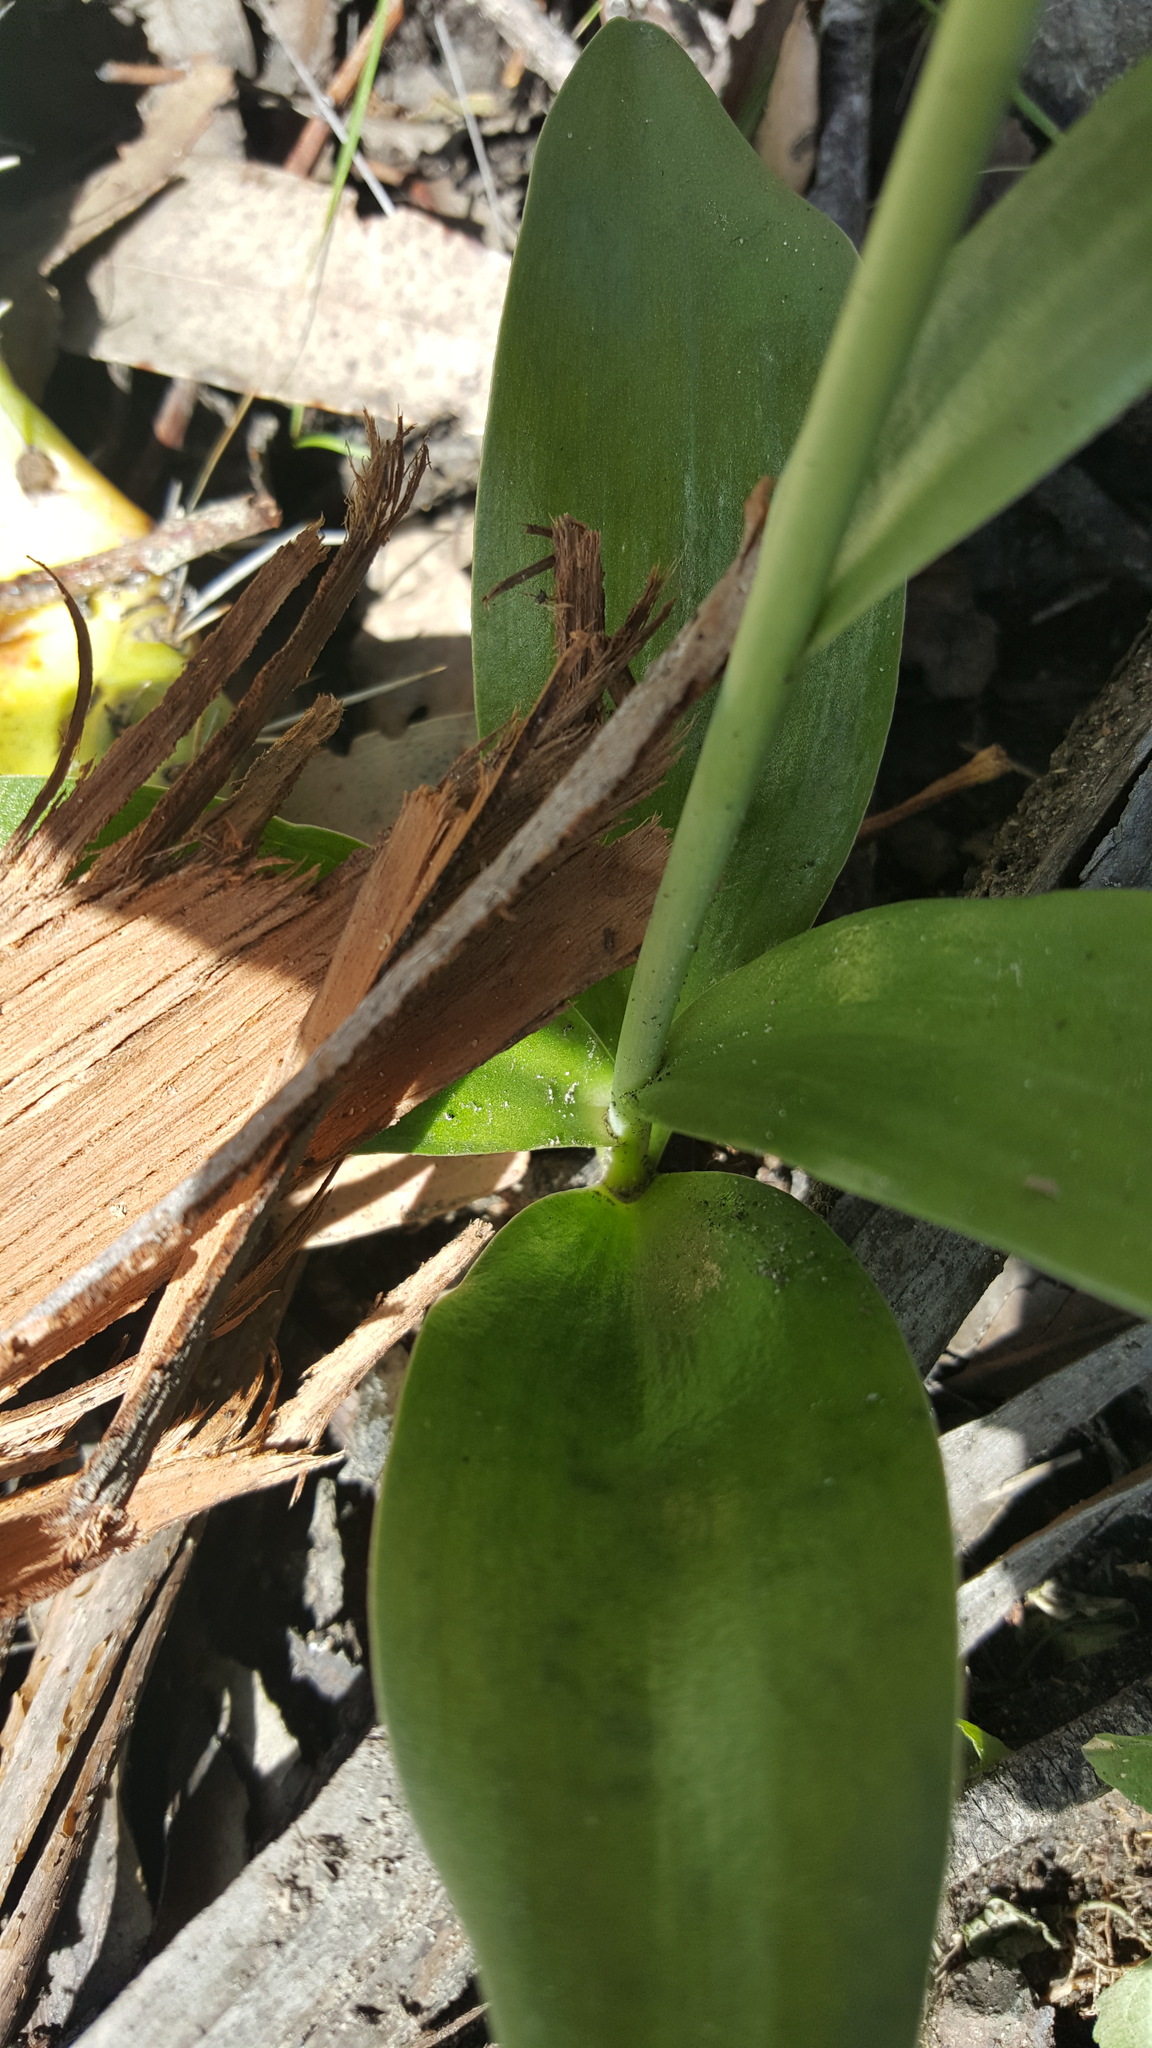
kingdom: Plantae
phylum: Tracheophyta
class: Liliopsida
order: Liliales
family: Liliaceae
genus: Fritillaria
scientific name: Fritillaria biflora
